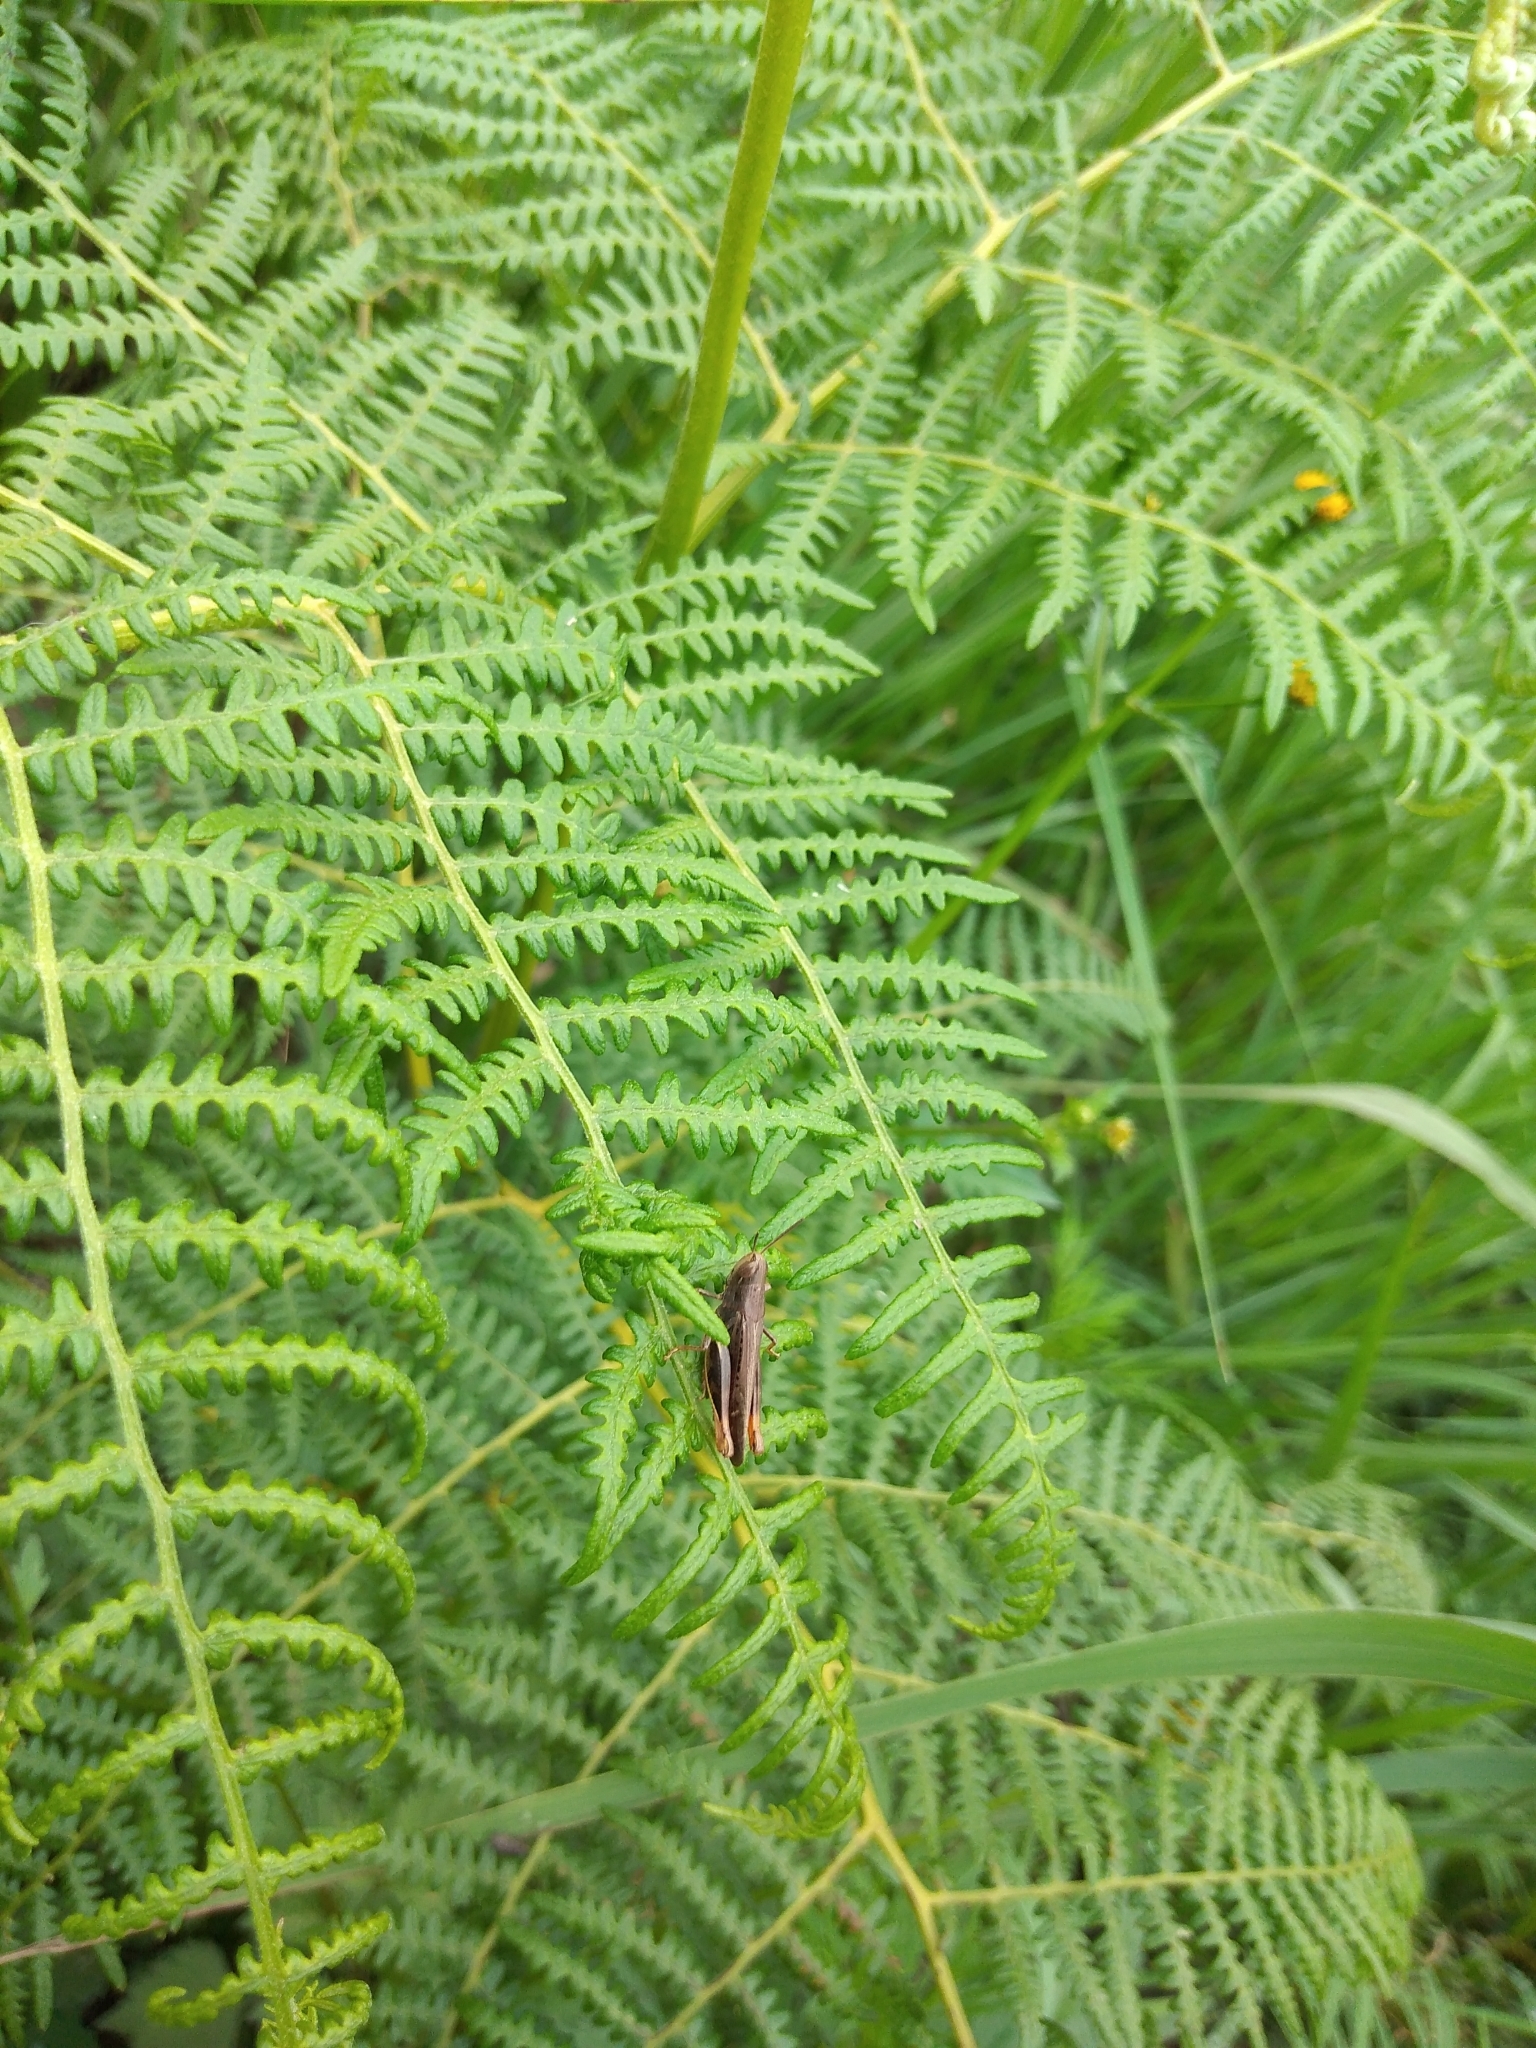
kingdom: Plantae
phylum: Tracheophyta
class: Polypodiopsida
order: Polypodiales
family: Dennstaedtiaceae
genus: Pteridium
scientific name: Pteridium aquilinum
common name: Bracken
